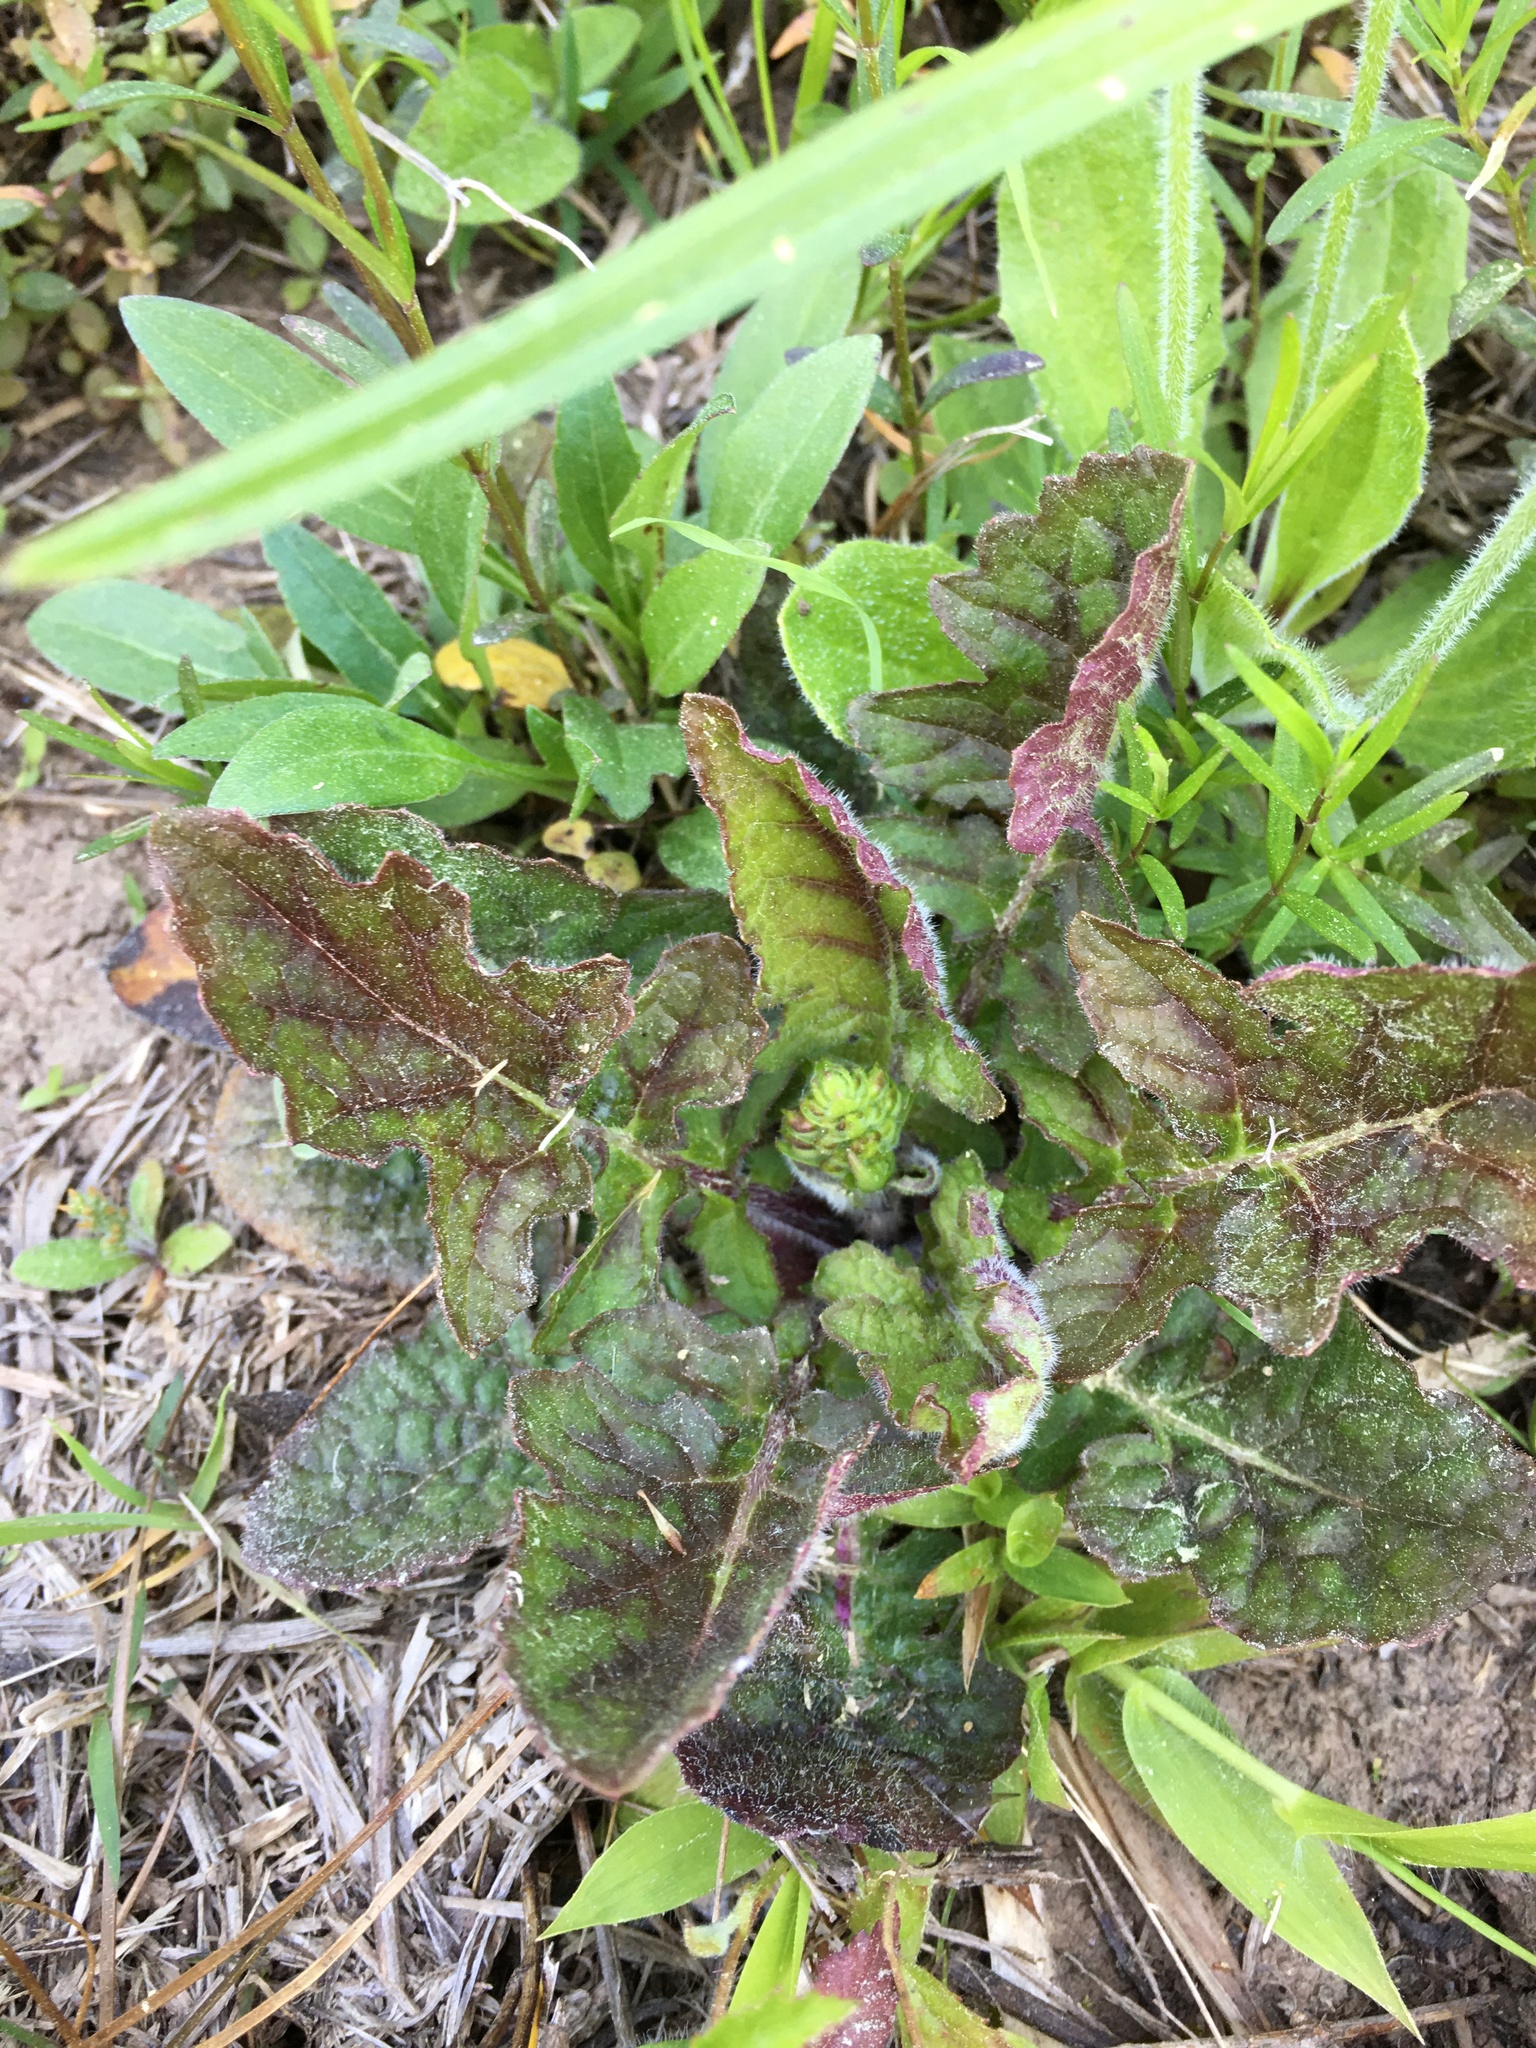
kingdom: Plantae
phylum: Tracheophyta
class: Magnoliopsida
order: Lamiales
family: Lamiaceae
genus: Salvia
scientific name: Salvia lyrata
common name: Cancerweed
